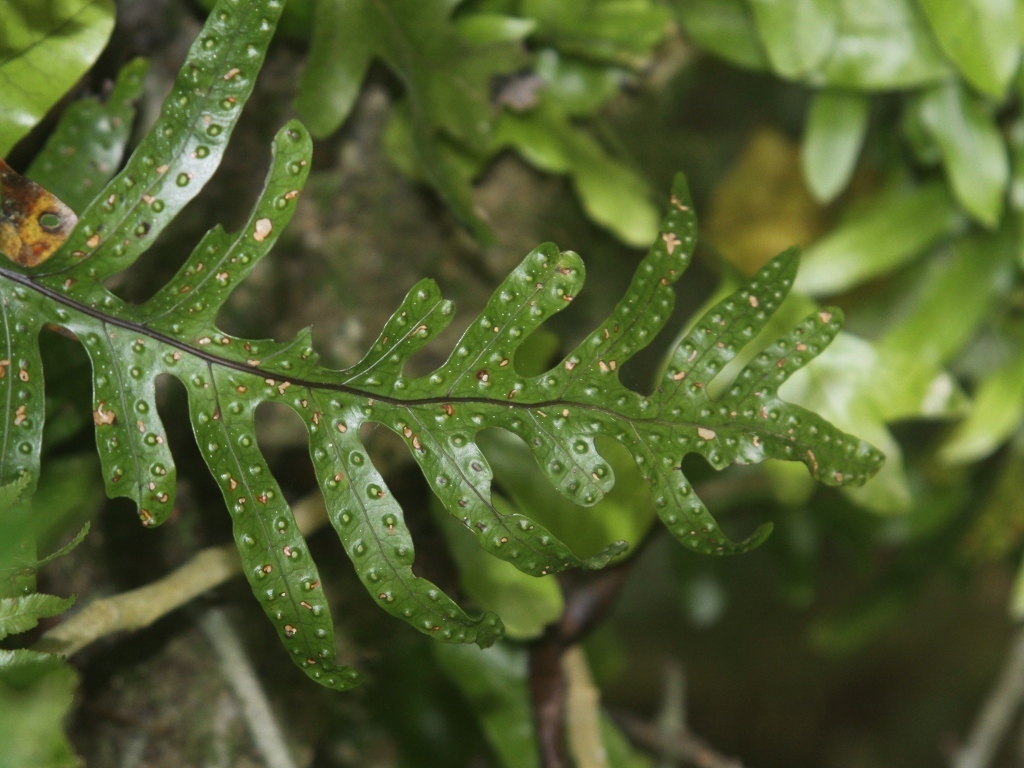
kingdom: Plantae
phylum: Tracheophyta
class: Polypodiopsida
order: Polypodiales
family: Polypodiaceae
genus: Lecanopteris
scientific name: Lecanopteris pustulata
